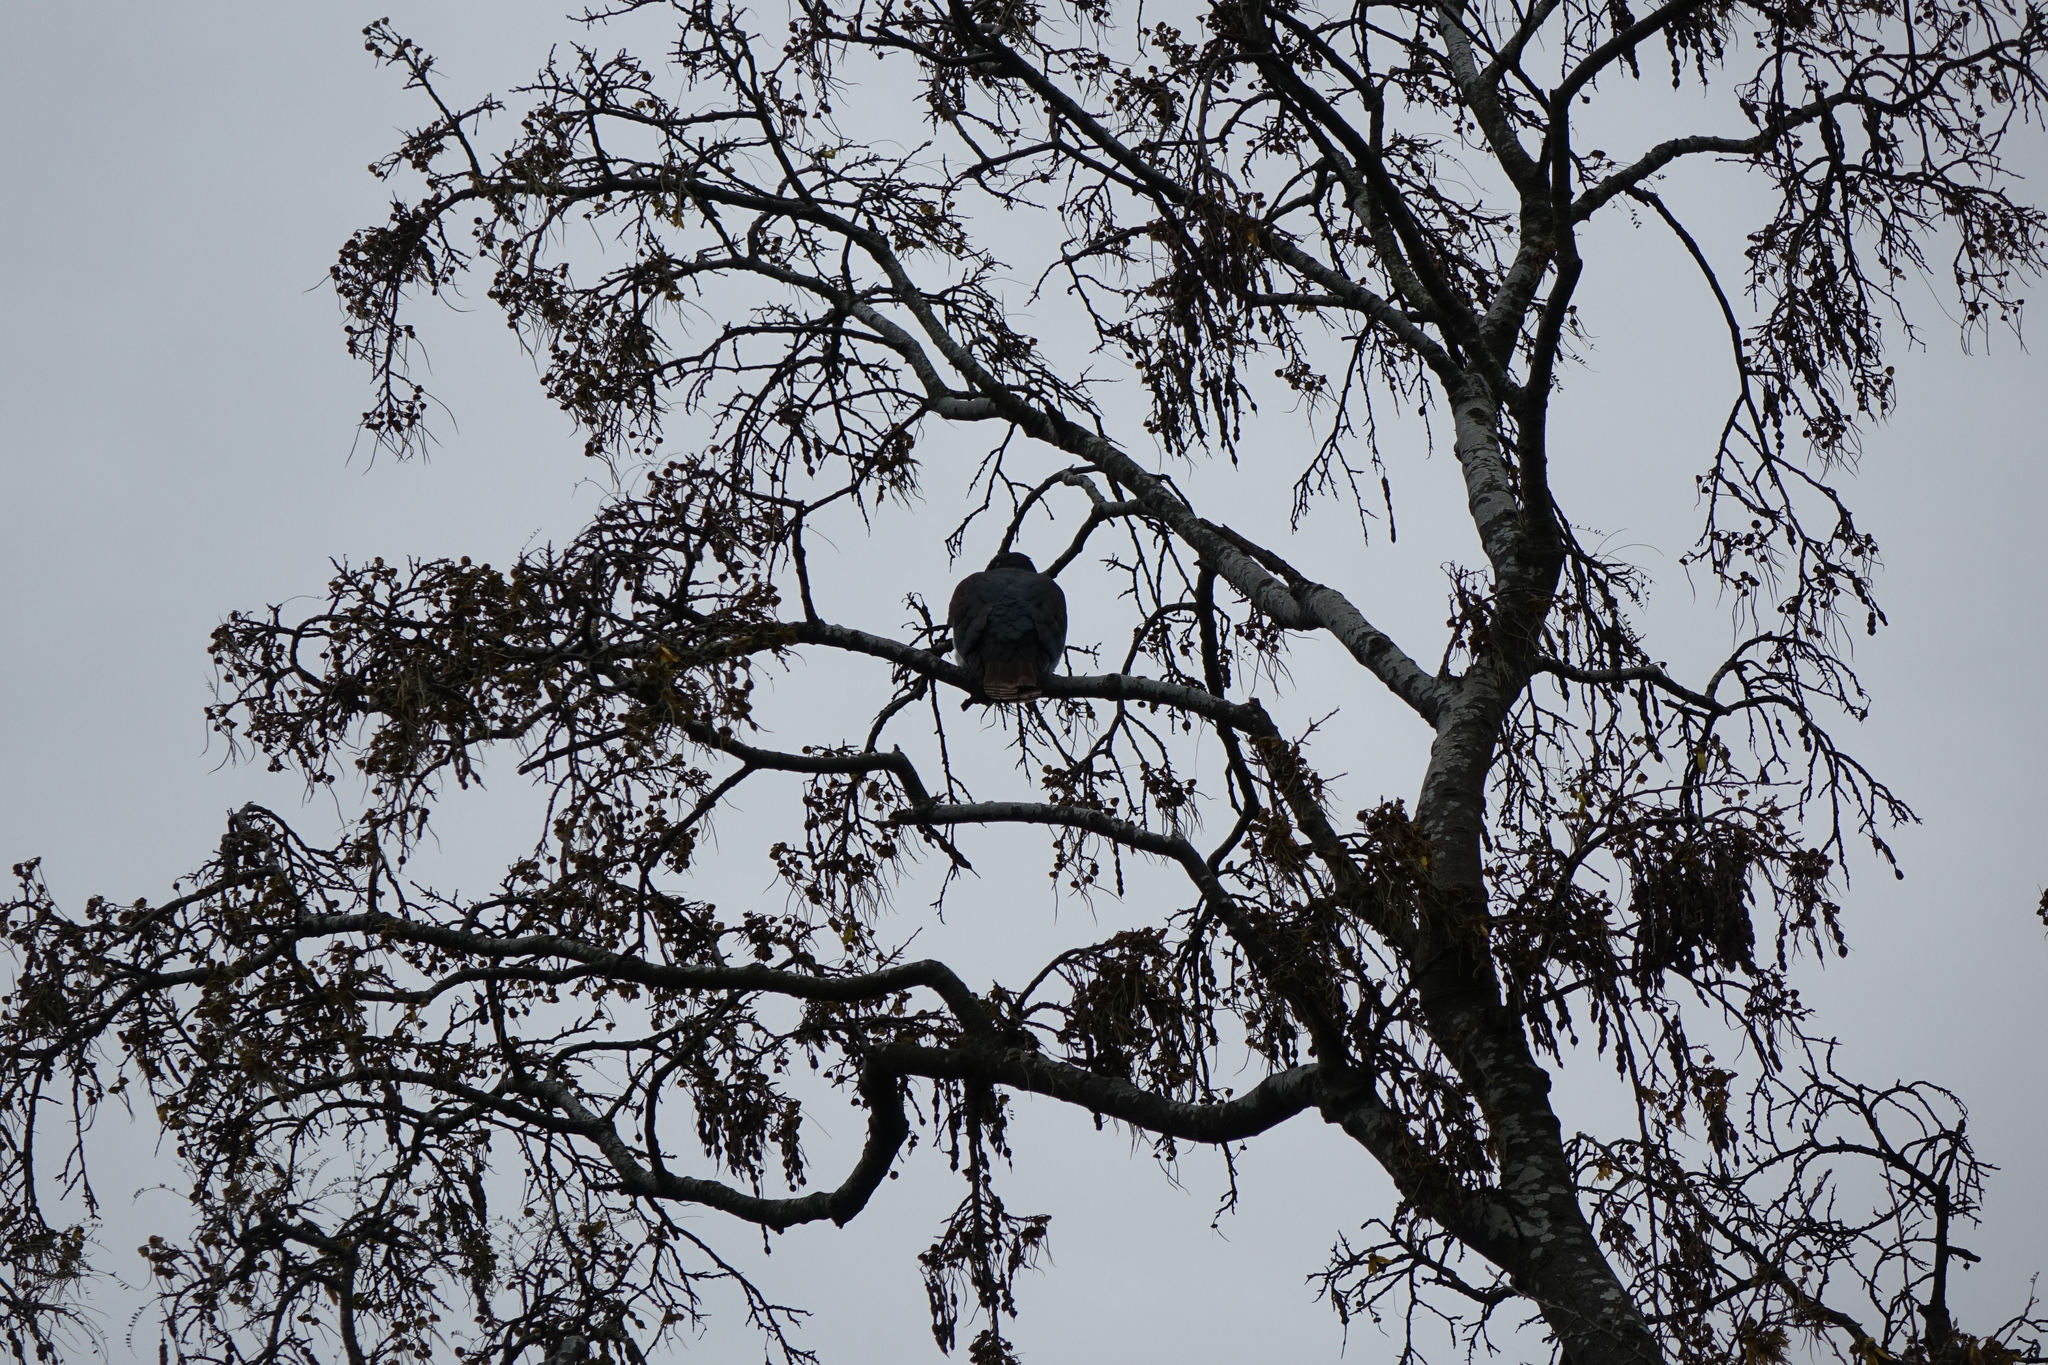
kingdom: Animalia
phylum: Chordata
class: Aves
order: Columbiformes
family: Columbidae
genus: Hemiphaga
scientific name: Hemiphaga novaeseelandiae
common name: New zealand pigeon
